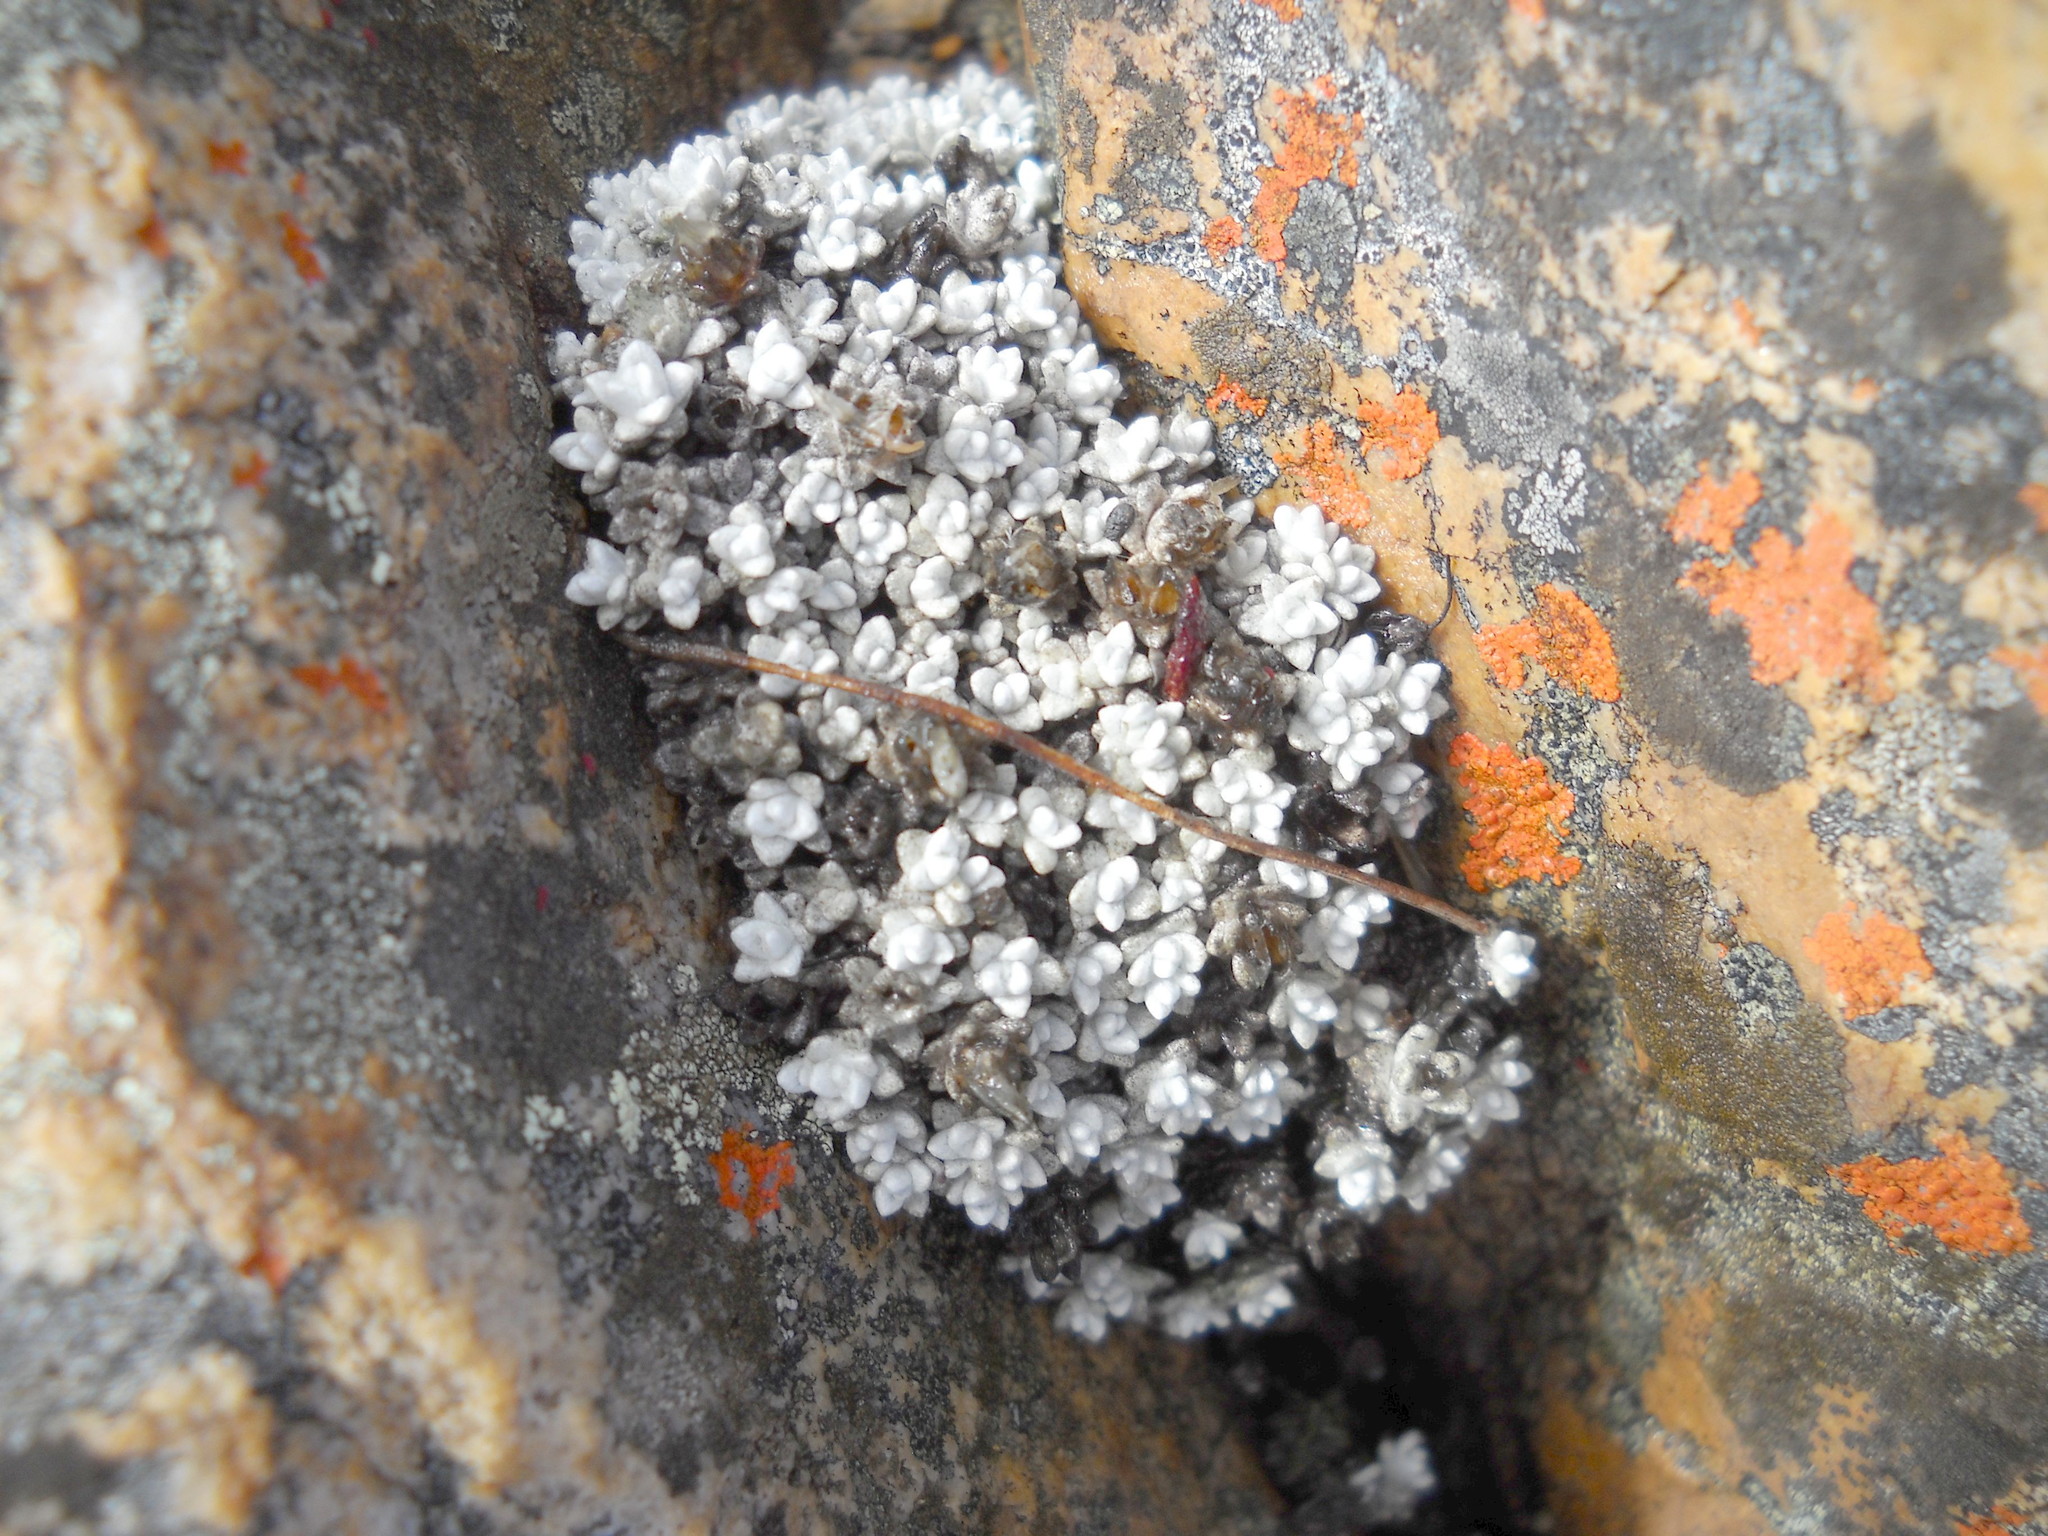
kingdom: Plantae
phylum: Tracheophyta
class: Magnoliopsida
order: Asterales
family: Asteraceae
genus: Helichrysum
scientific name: Helichrysum saxicola
